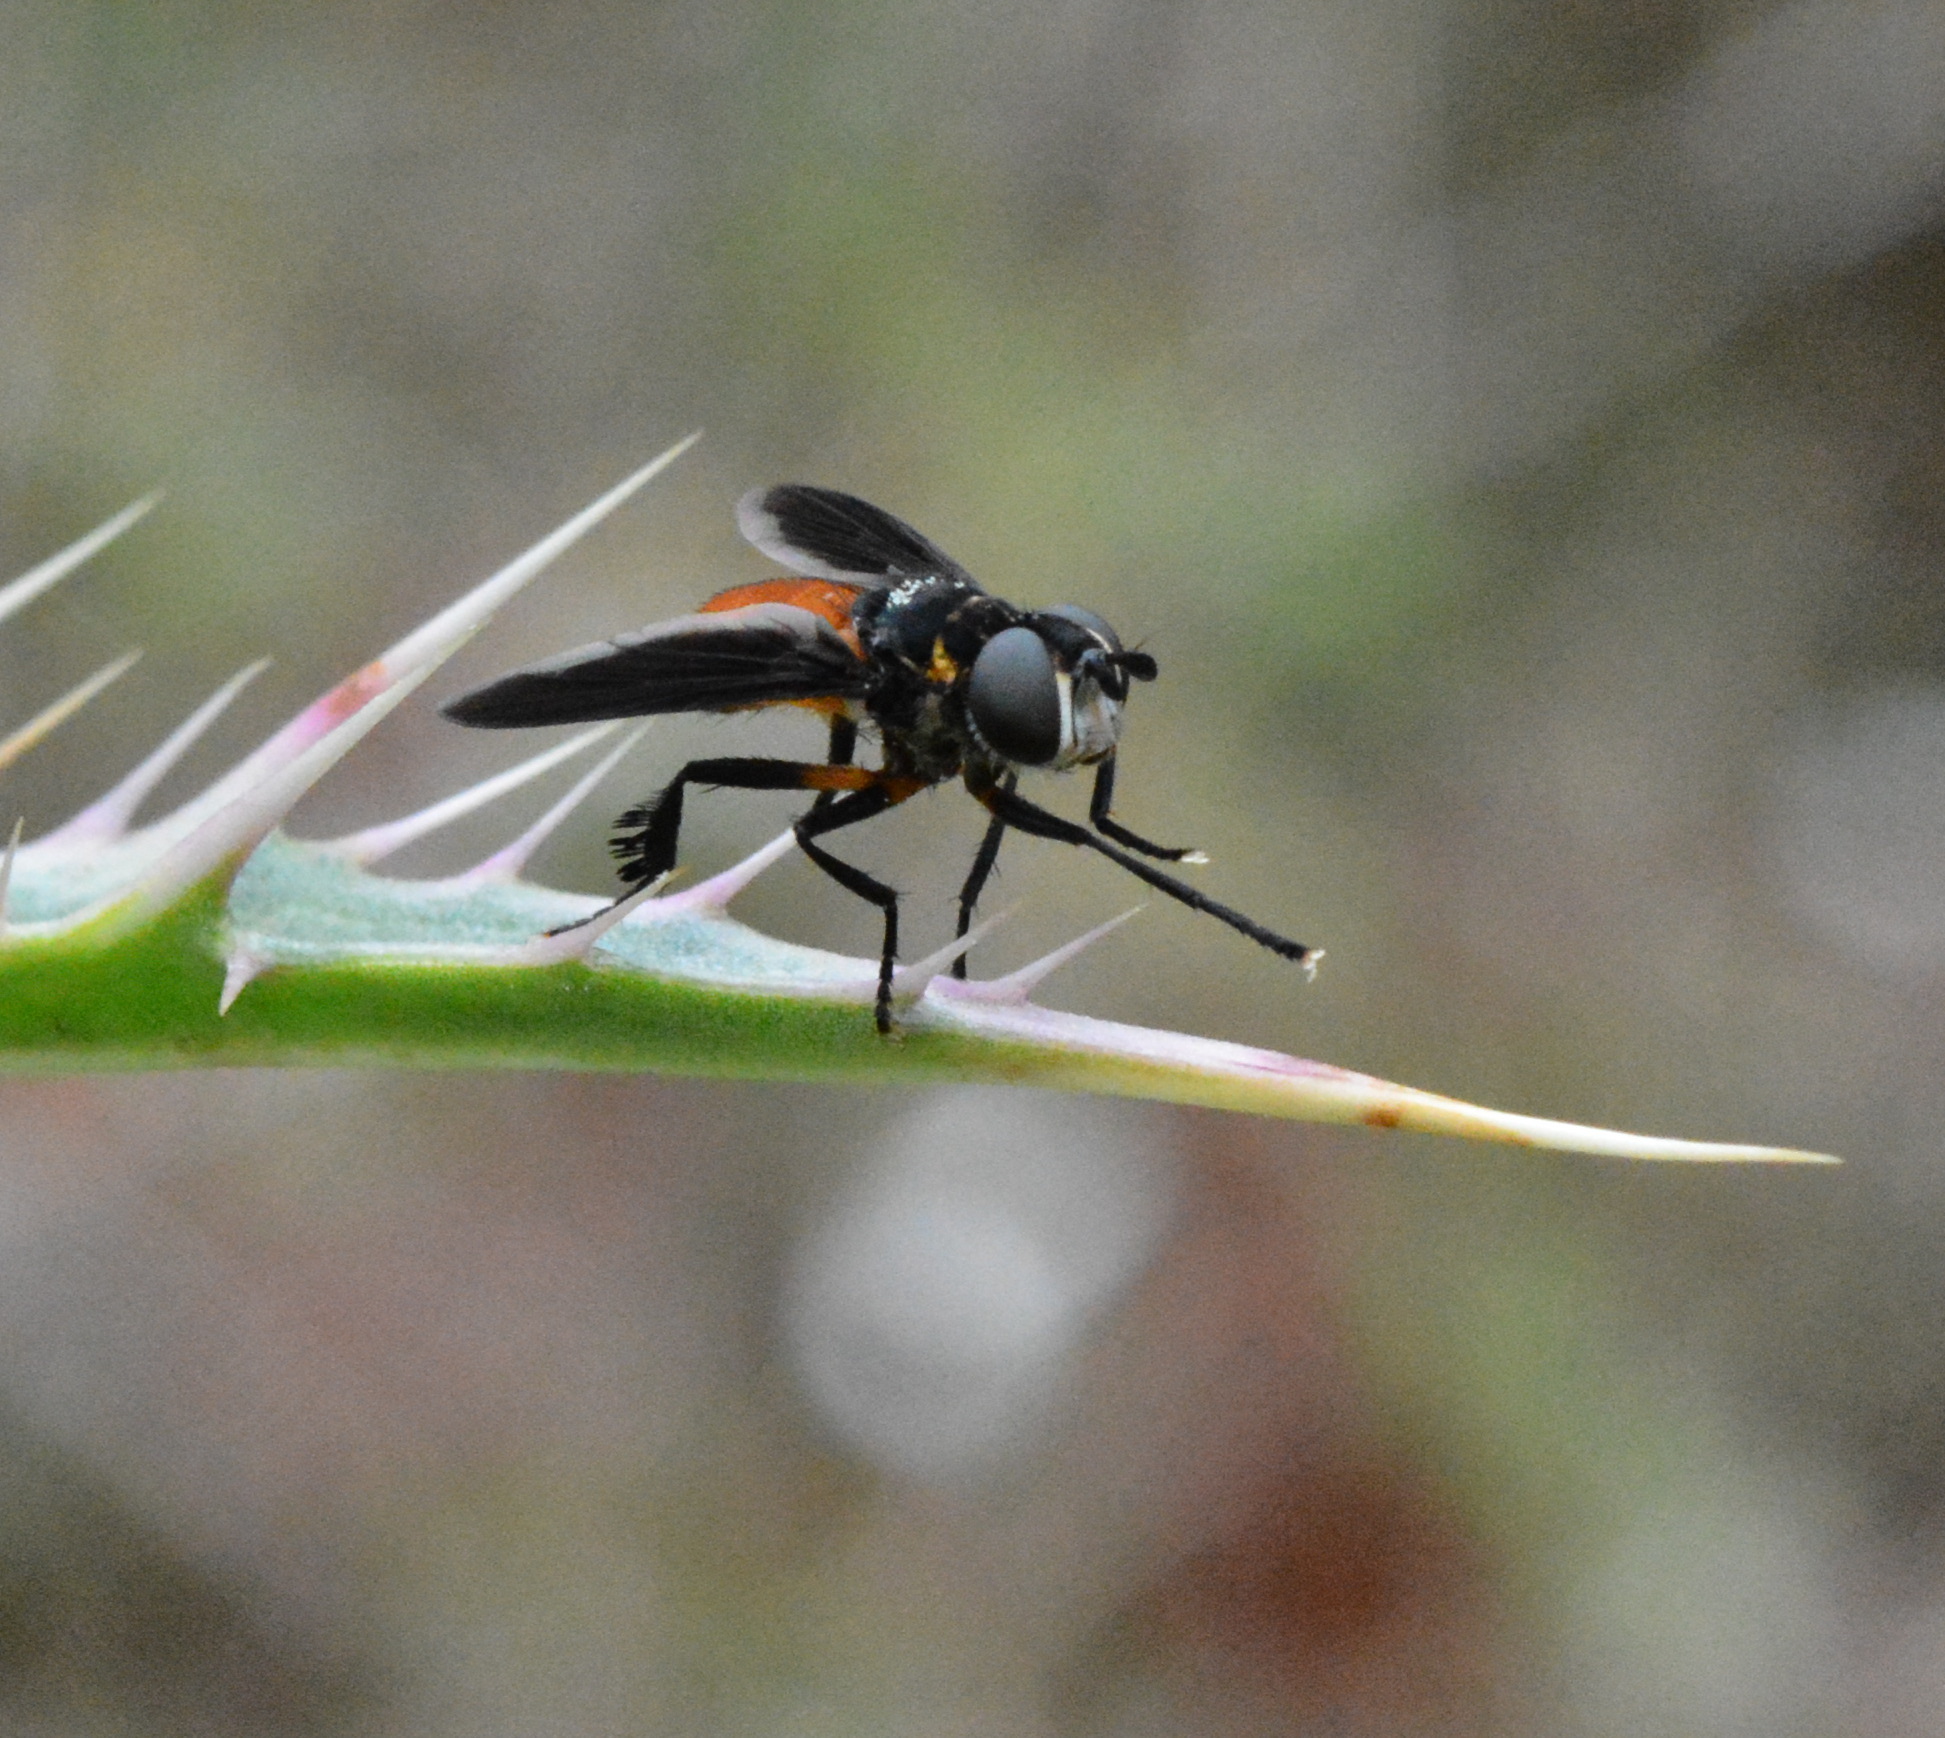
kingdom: Animalia
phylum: Arthropoda
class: Insecta
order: Diptera
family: Tachinidae
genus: Trichopoda
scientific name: Trichopoda pennipes
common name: Tachinid fly
